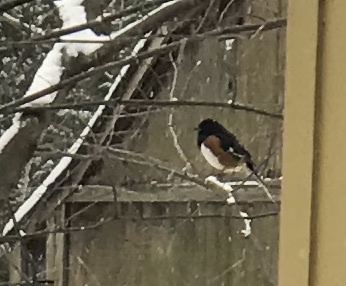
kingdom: Animalia
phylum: Chordata
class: Aves
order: Passeriformes
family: Passerellidae
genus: Pipilo
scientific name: Pipilo erythrophthalmus
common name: Eastern towhee
